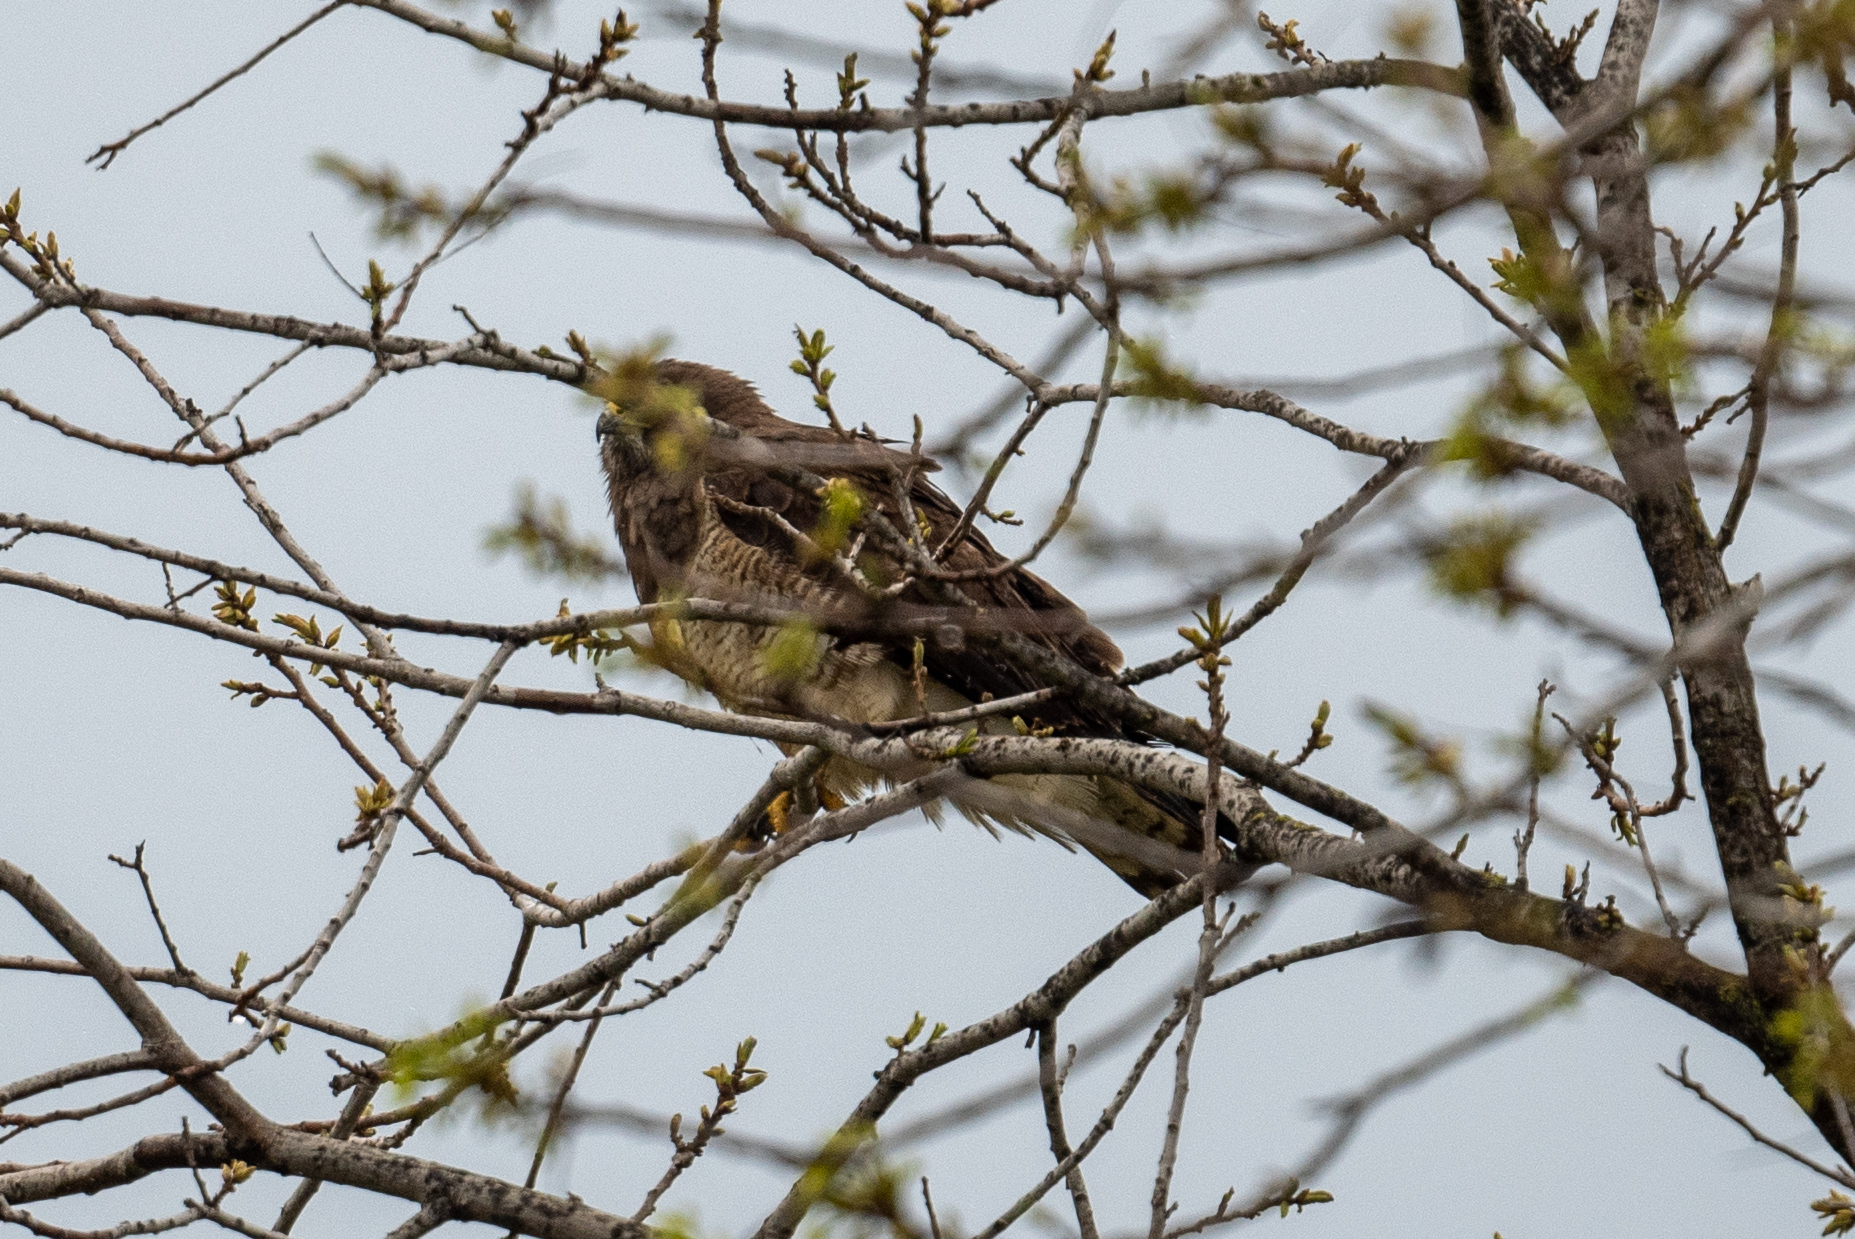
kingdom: Animalia
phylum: Chordata
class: Aves
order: Accipitriformes
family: Accipitridae
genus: Buteo
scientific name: Buteo swainsoni
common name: Swainson's hawk
